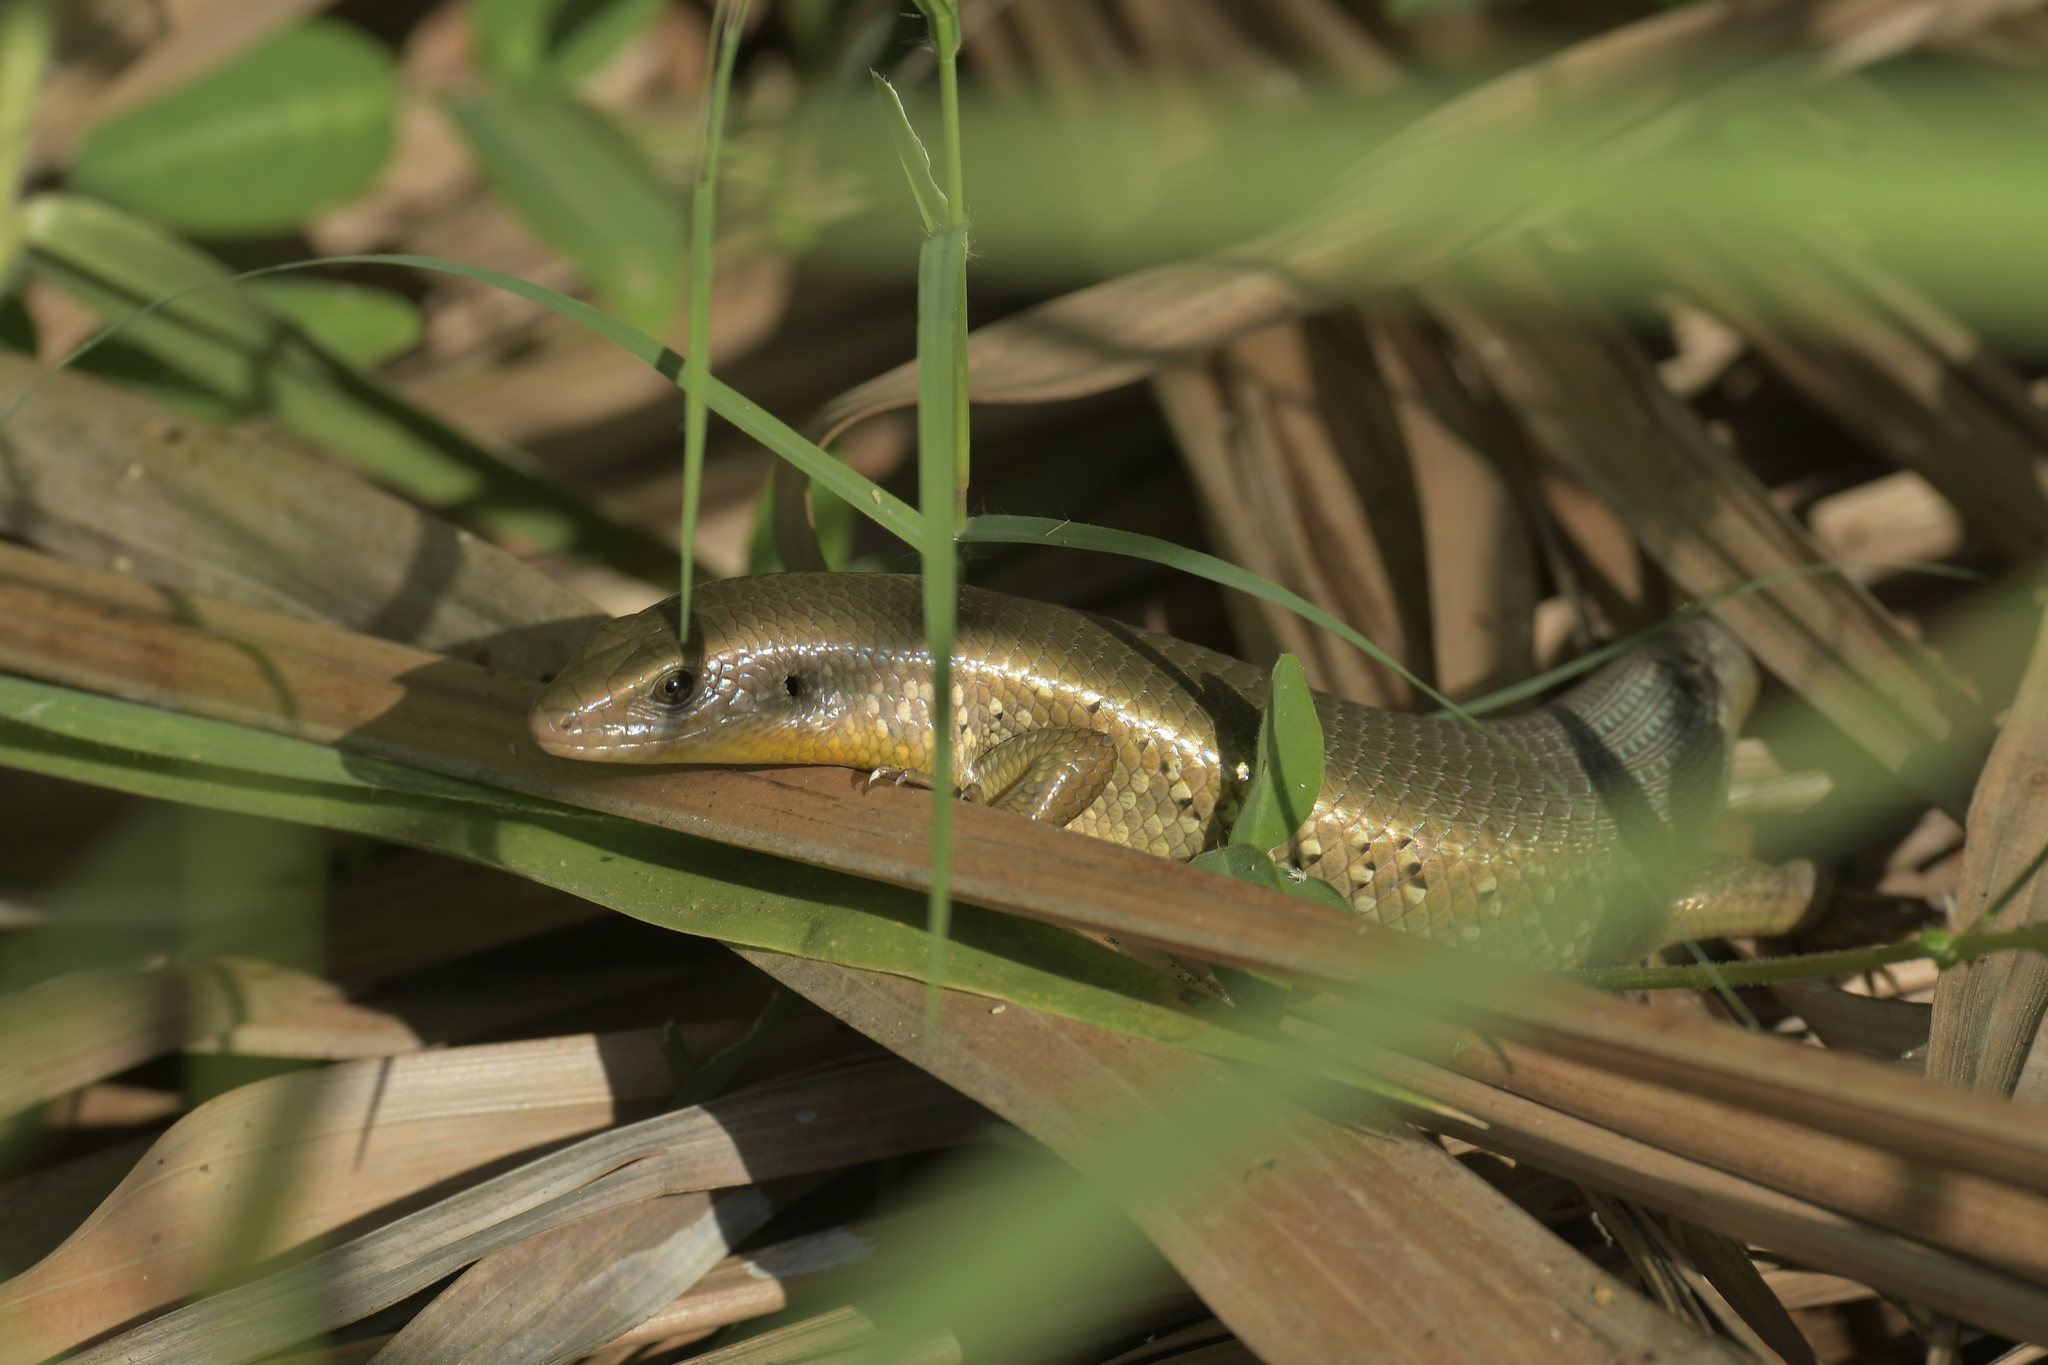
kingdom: Animalia
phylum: Chordata
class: Squamata
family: Scincidae
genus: Eutropis
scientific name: Eutropis multifasciata
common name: Common mabuya
